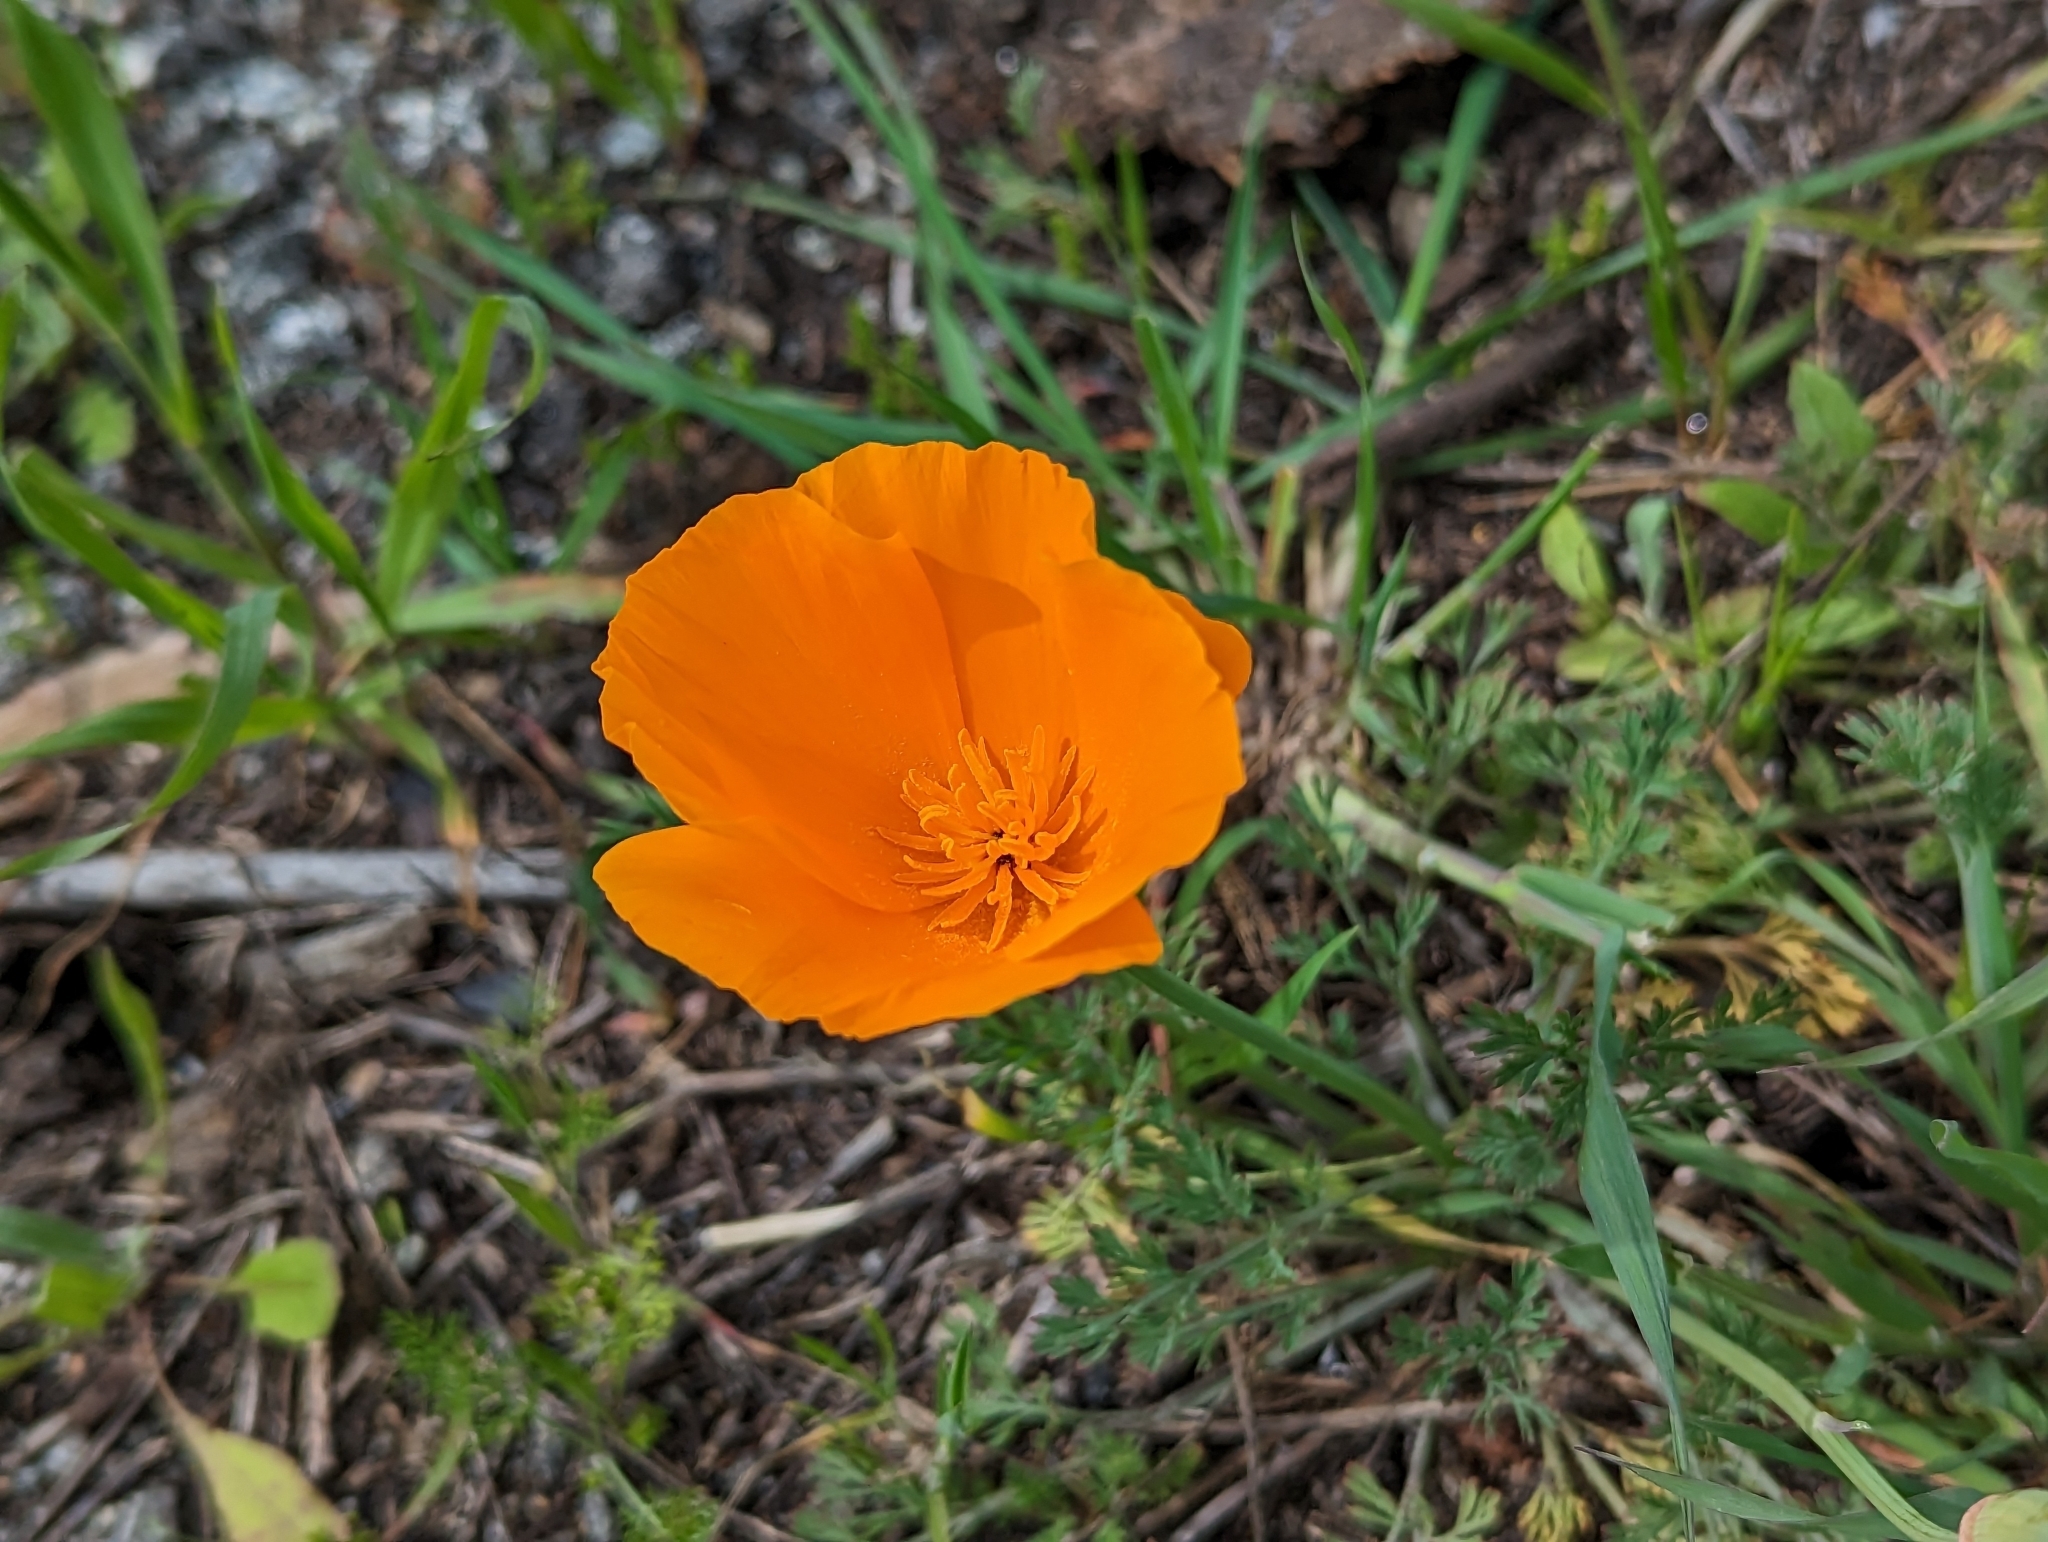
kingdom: Plantae
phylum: Tracheophyta
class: Magnoliopsida
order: Ranunculales
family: Papaveraceae
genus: Eschscholzia
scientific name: Eschscholzia californica
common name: California poppy
